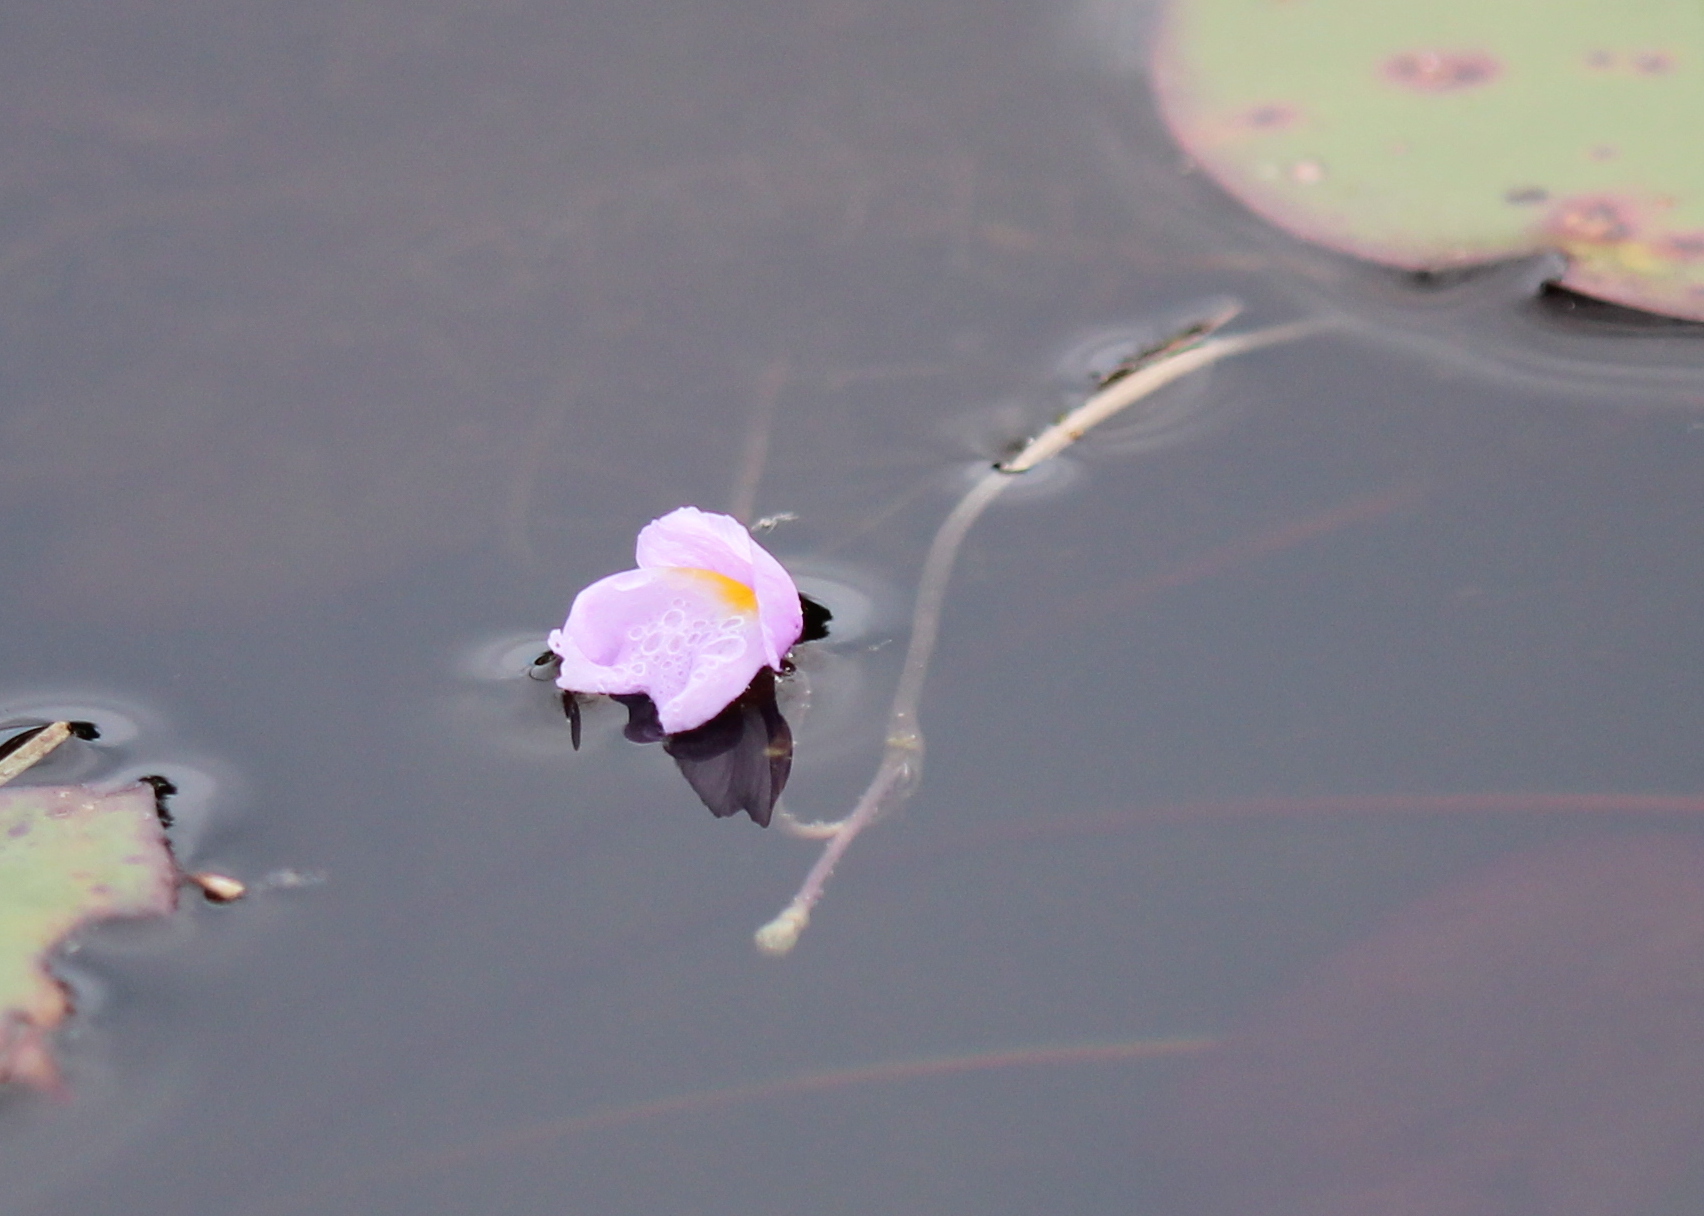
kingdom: Plantae
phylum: Tracheophyta
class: Magnoliopsida
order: Lamiales
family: Lentibulariaceae
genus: Utricularia
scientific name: Utricularia purpurea
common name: Eastern purple bladderwort
